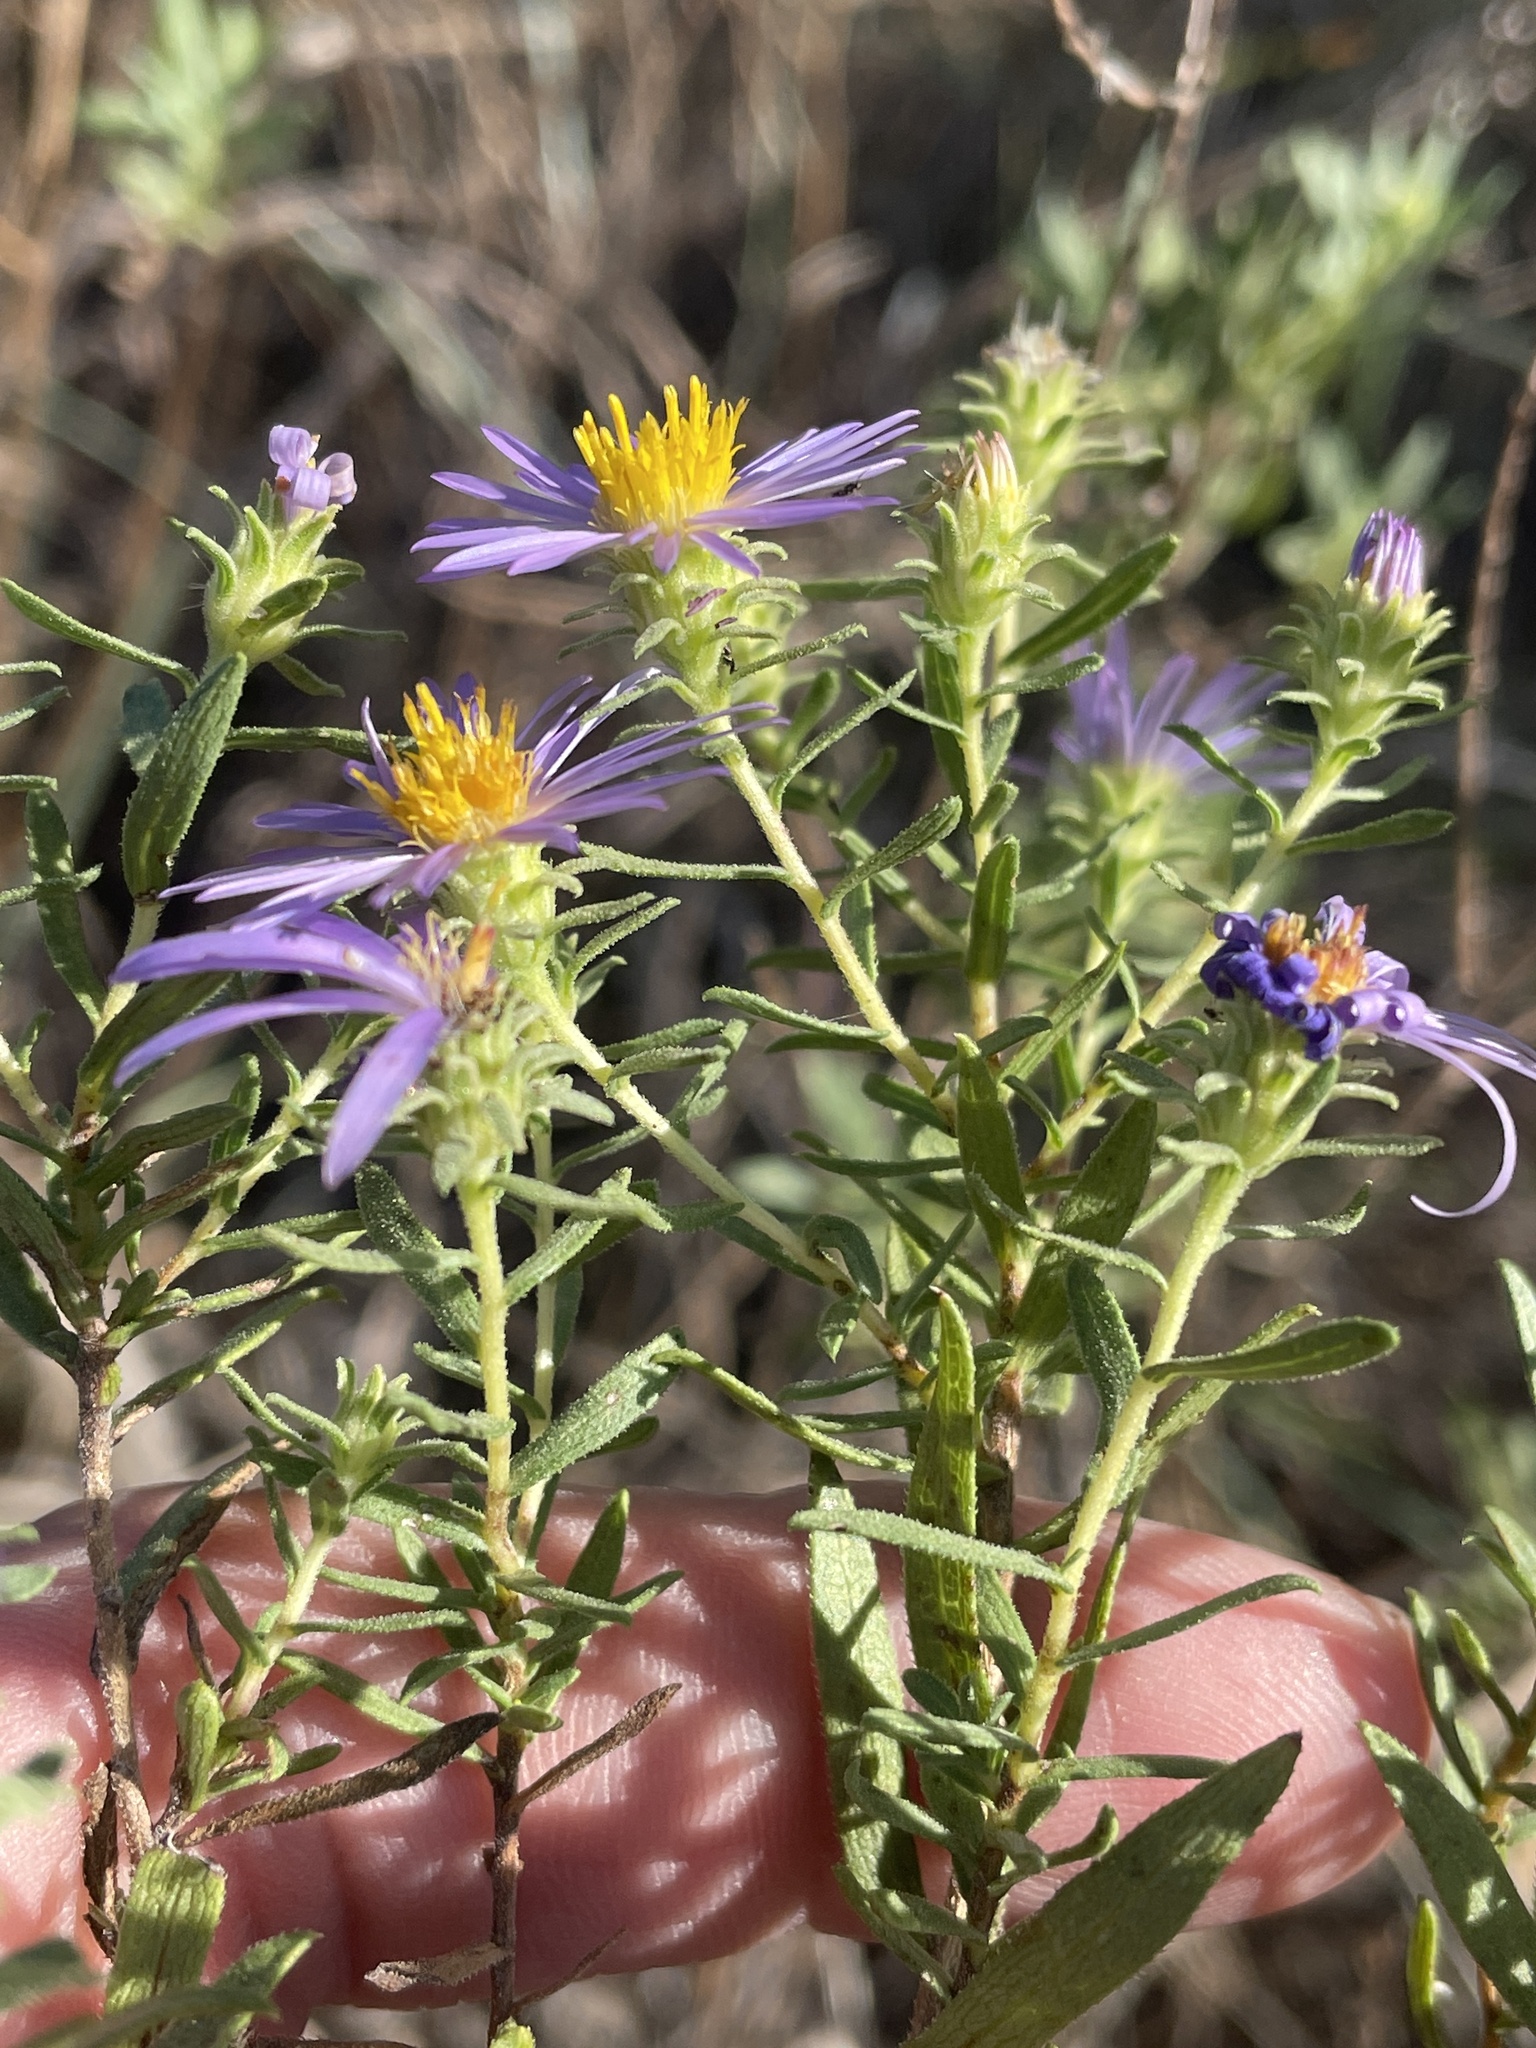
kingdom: Plantae
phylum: Tracheophyta
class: Magnoliopsida
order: Asterales
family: Asteraceae
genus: Symphyotrichum
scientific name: Symphyotrichum oblongifolium
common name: Aromatic aster
